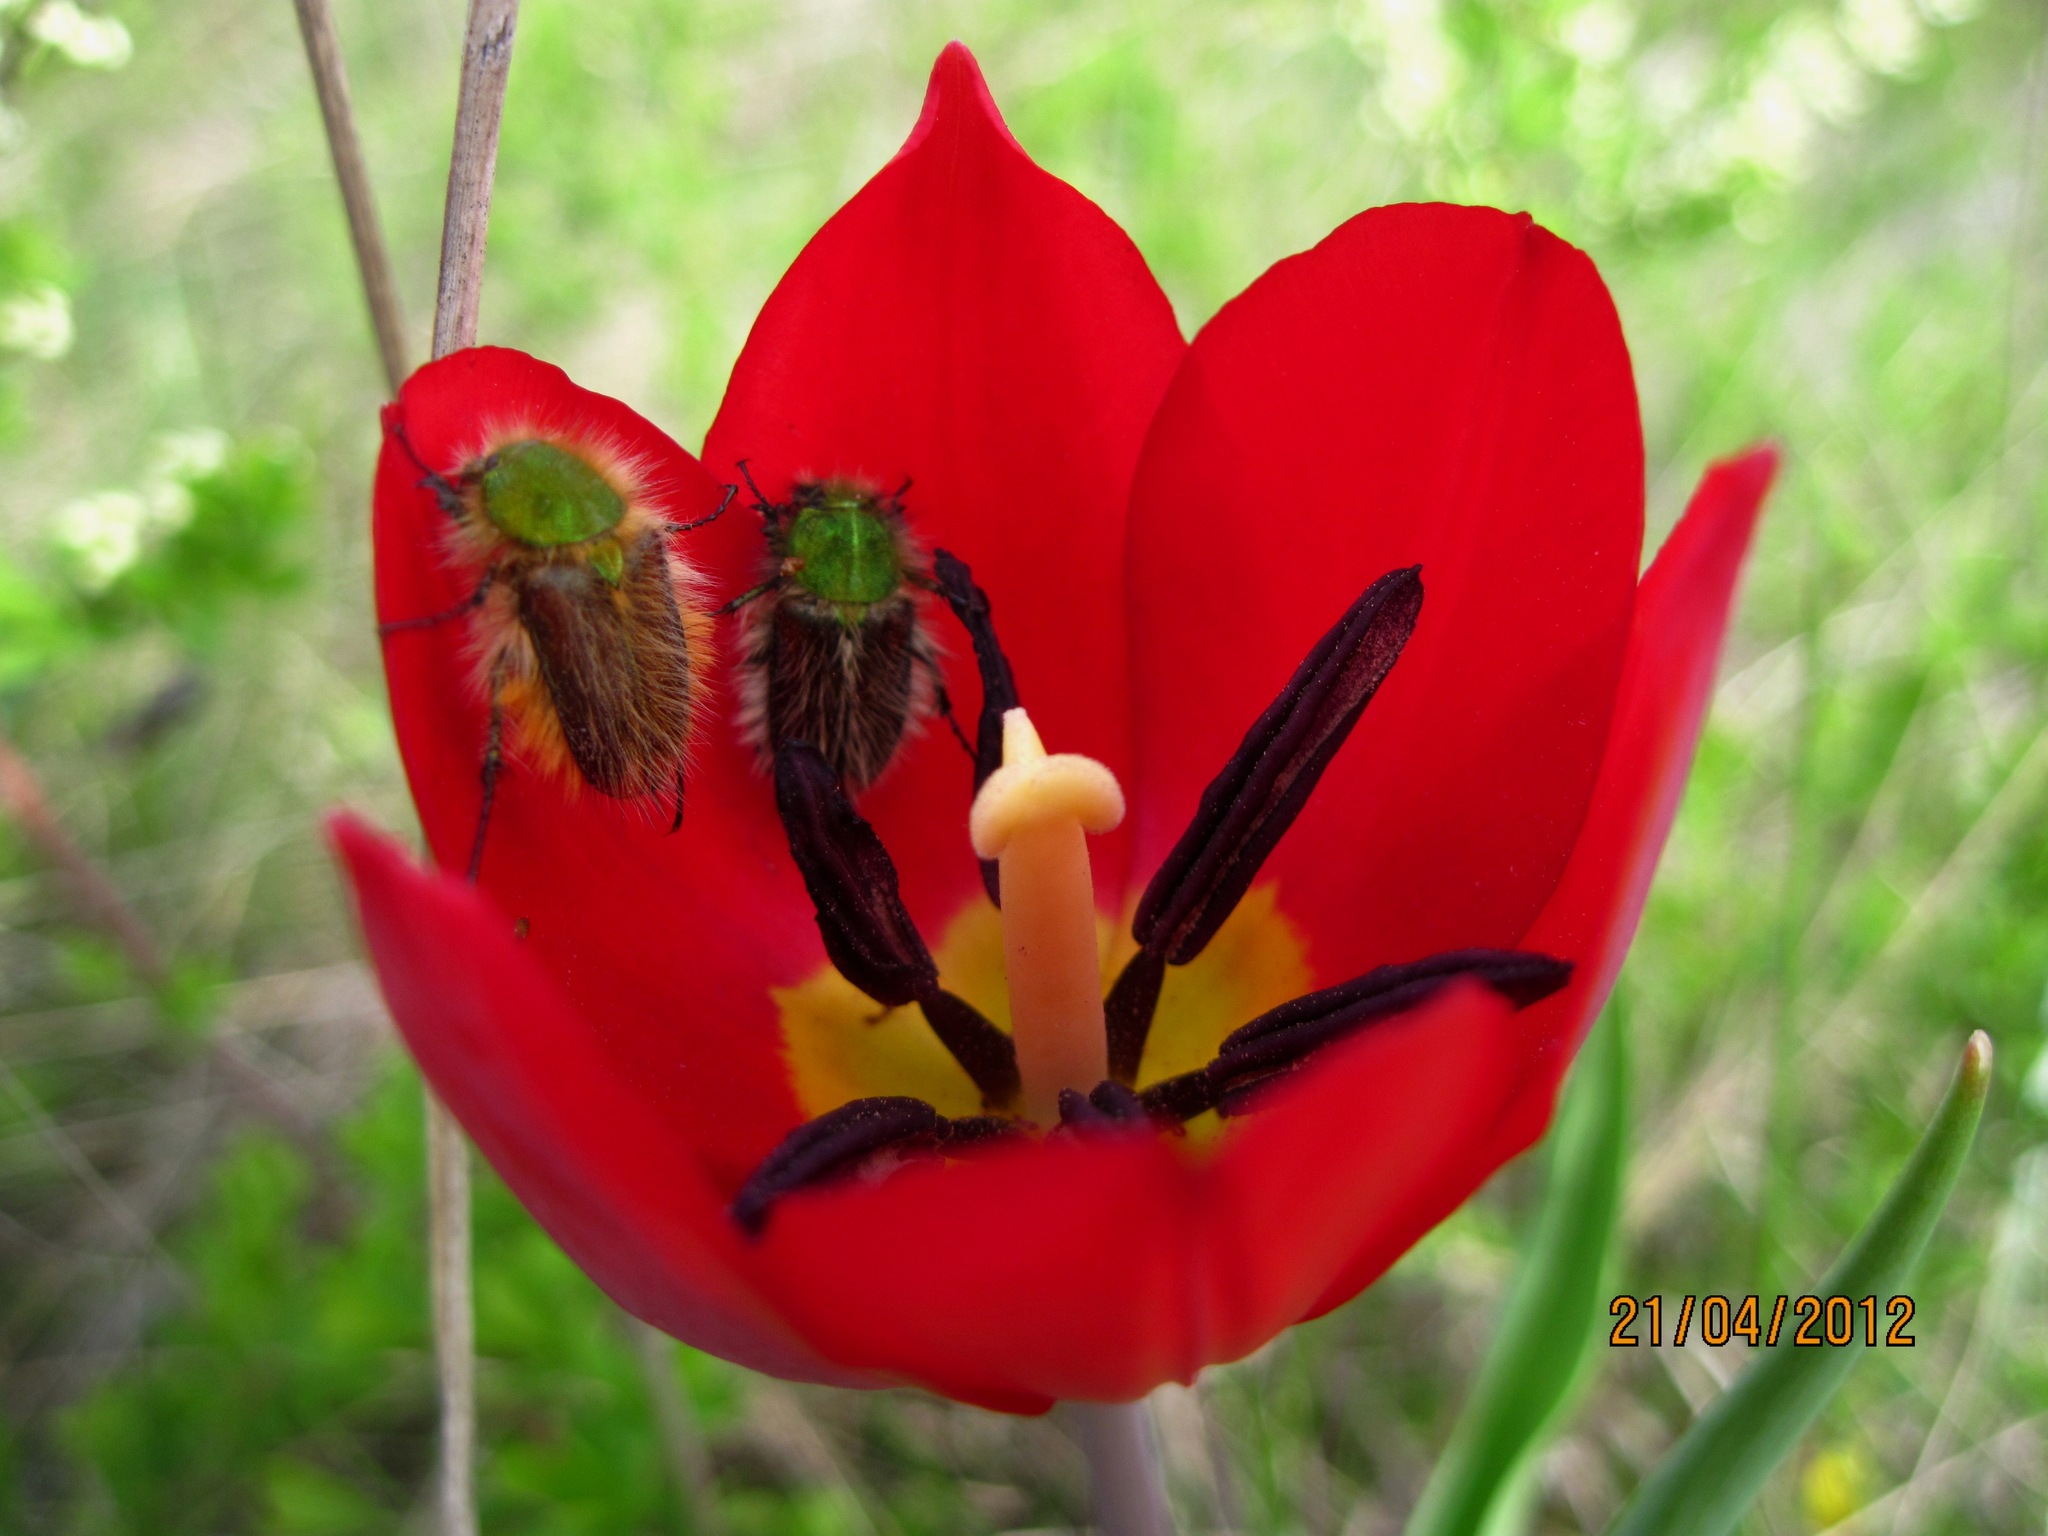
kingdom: Animalia
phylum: Arthropoda
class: Insecta
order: Coleoptera
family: Glaphyridae
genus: Pygopleurus
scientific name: Pygopleurus vulpes
